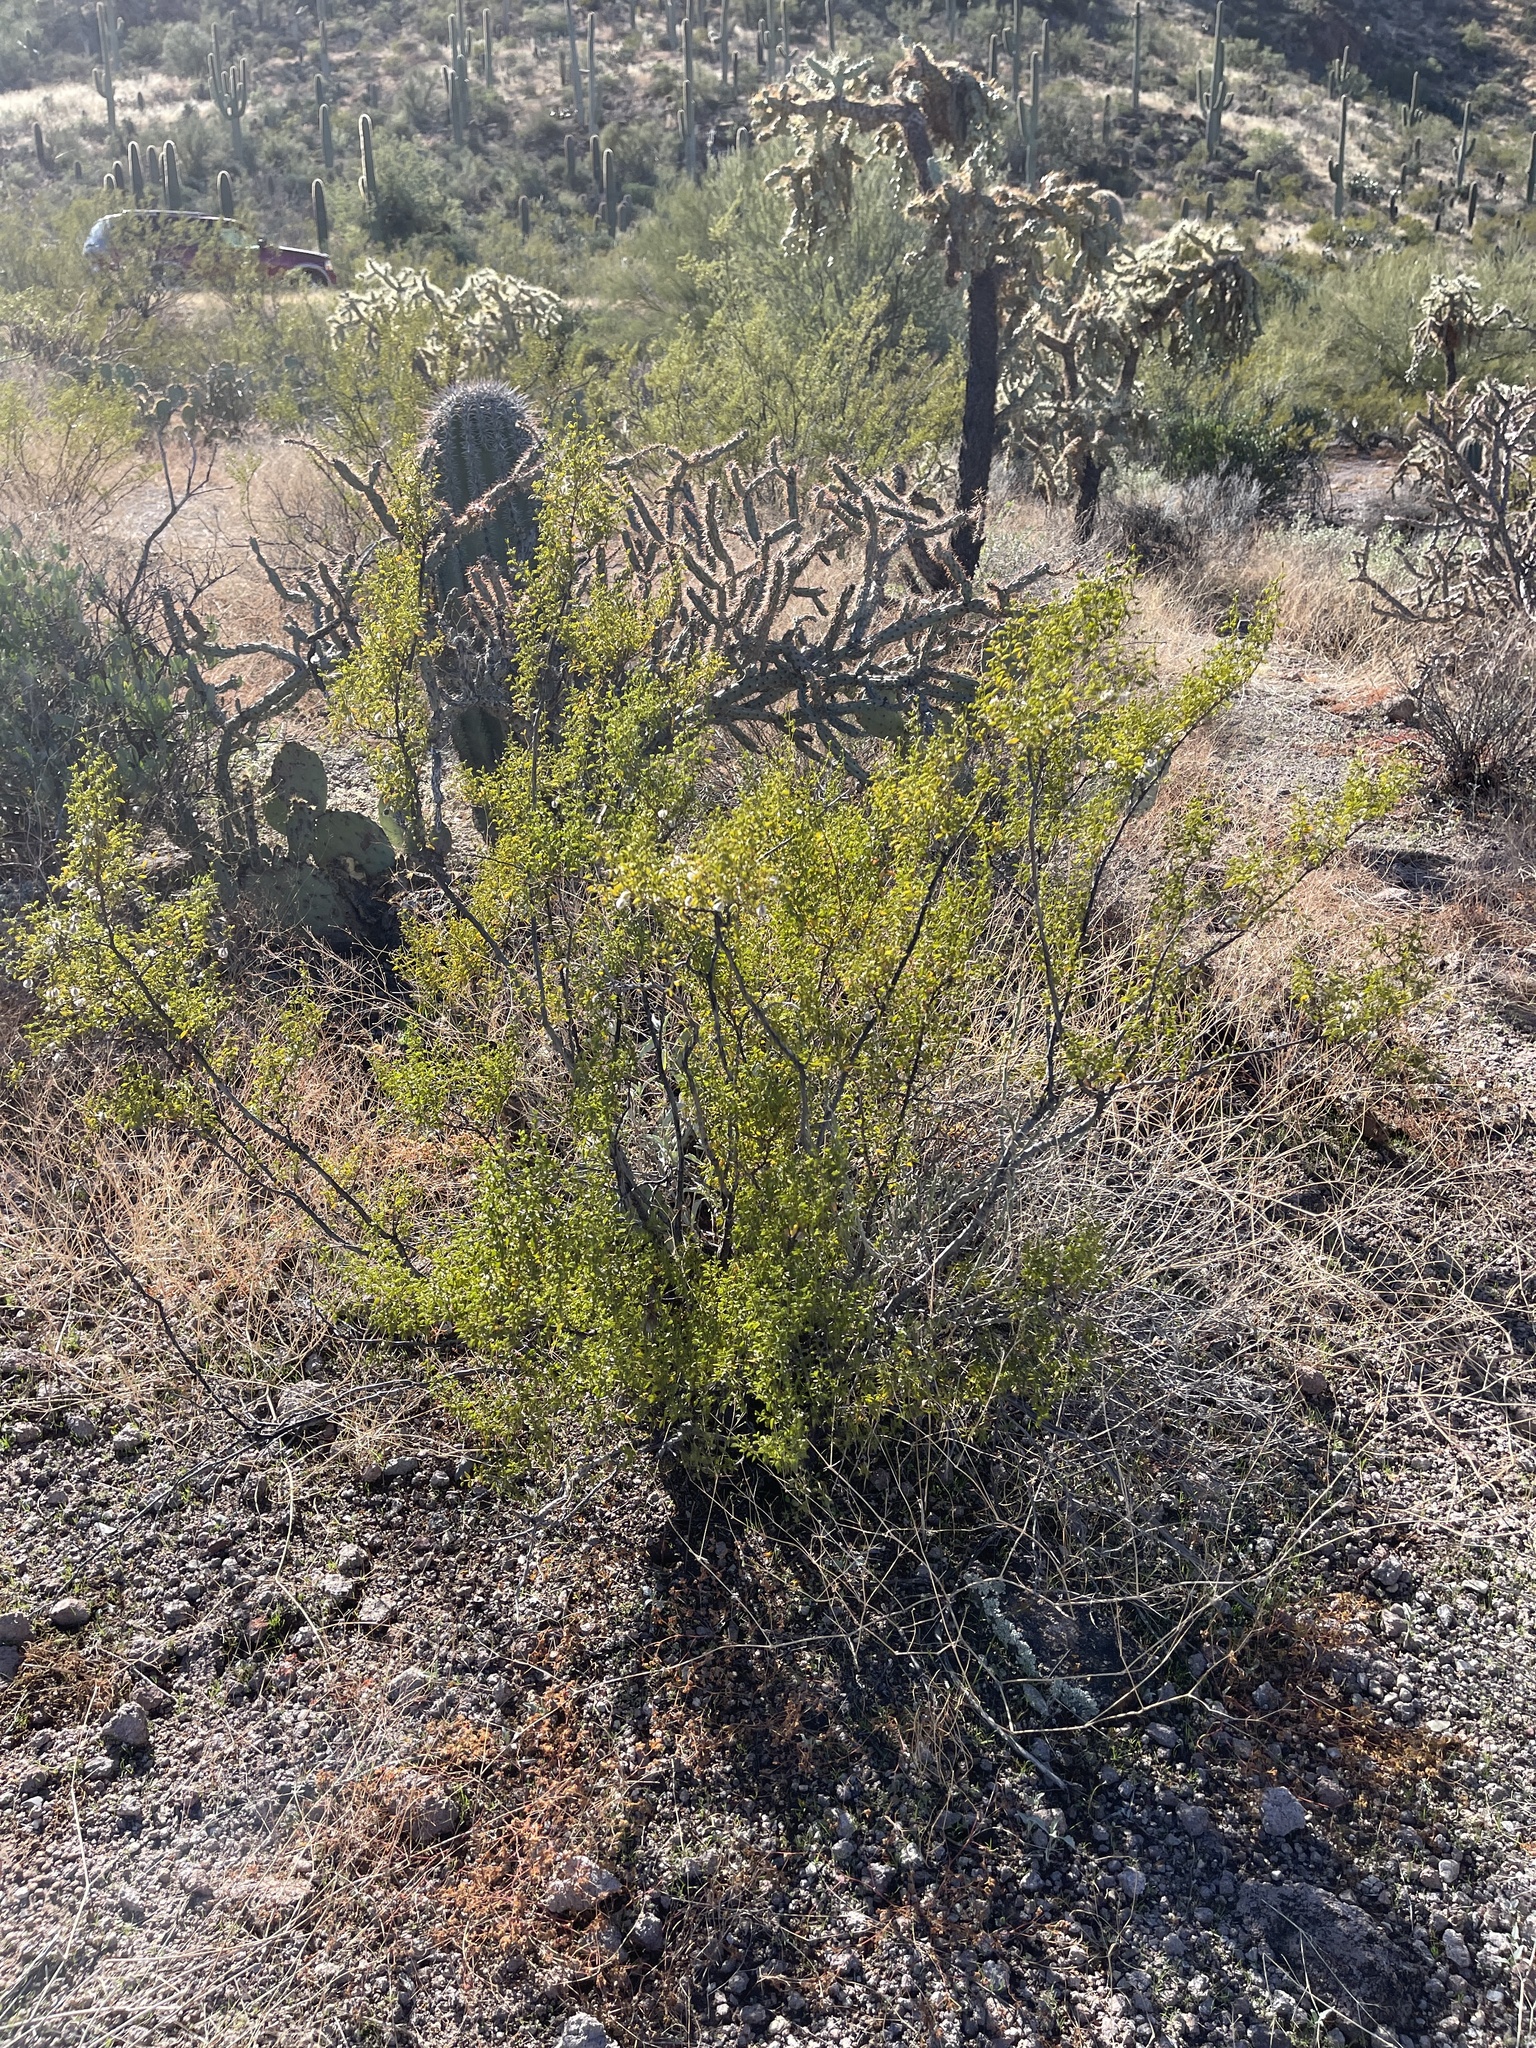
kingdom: Plantae
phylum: Tracheophyta
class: Magnoliopsida
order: Zygophyllales
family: Zygophyllaceae
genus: Larrea
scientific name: Larrea tridentata
